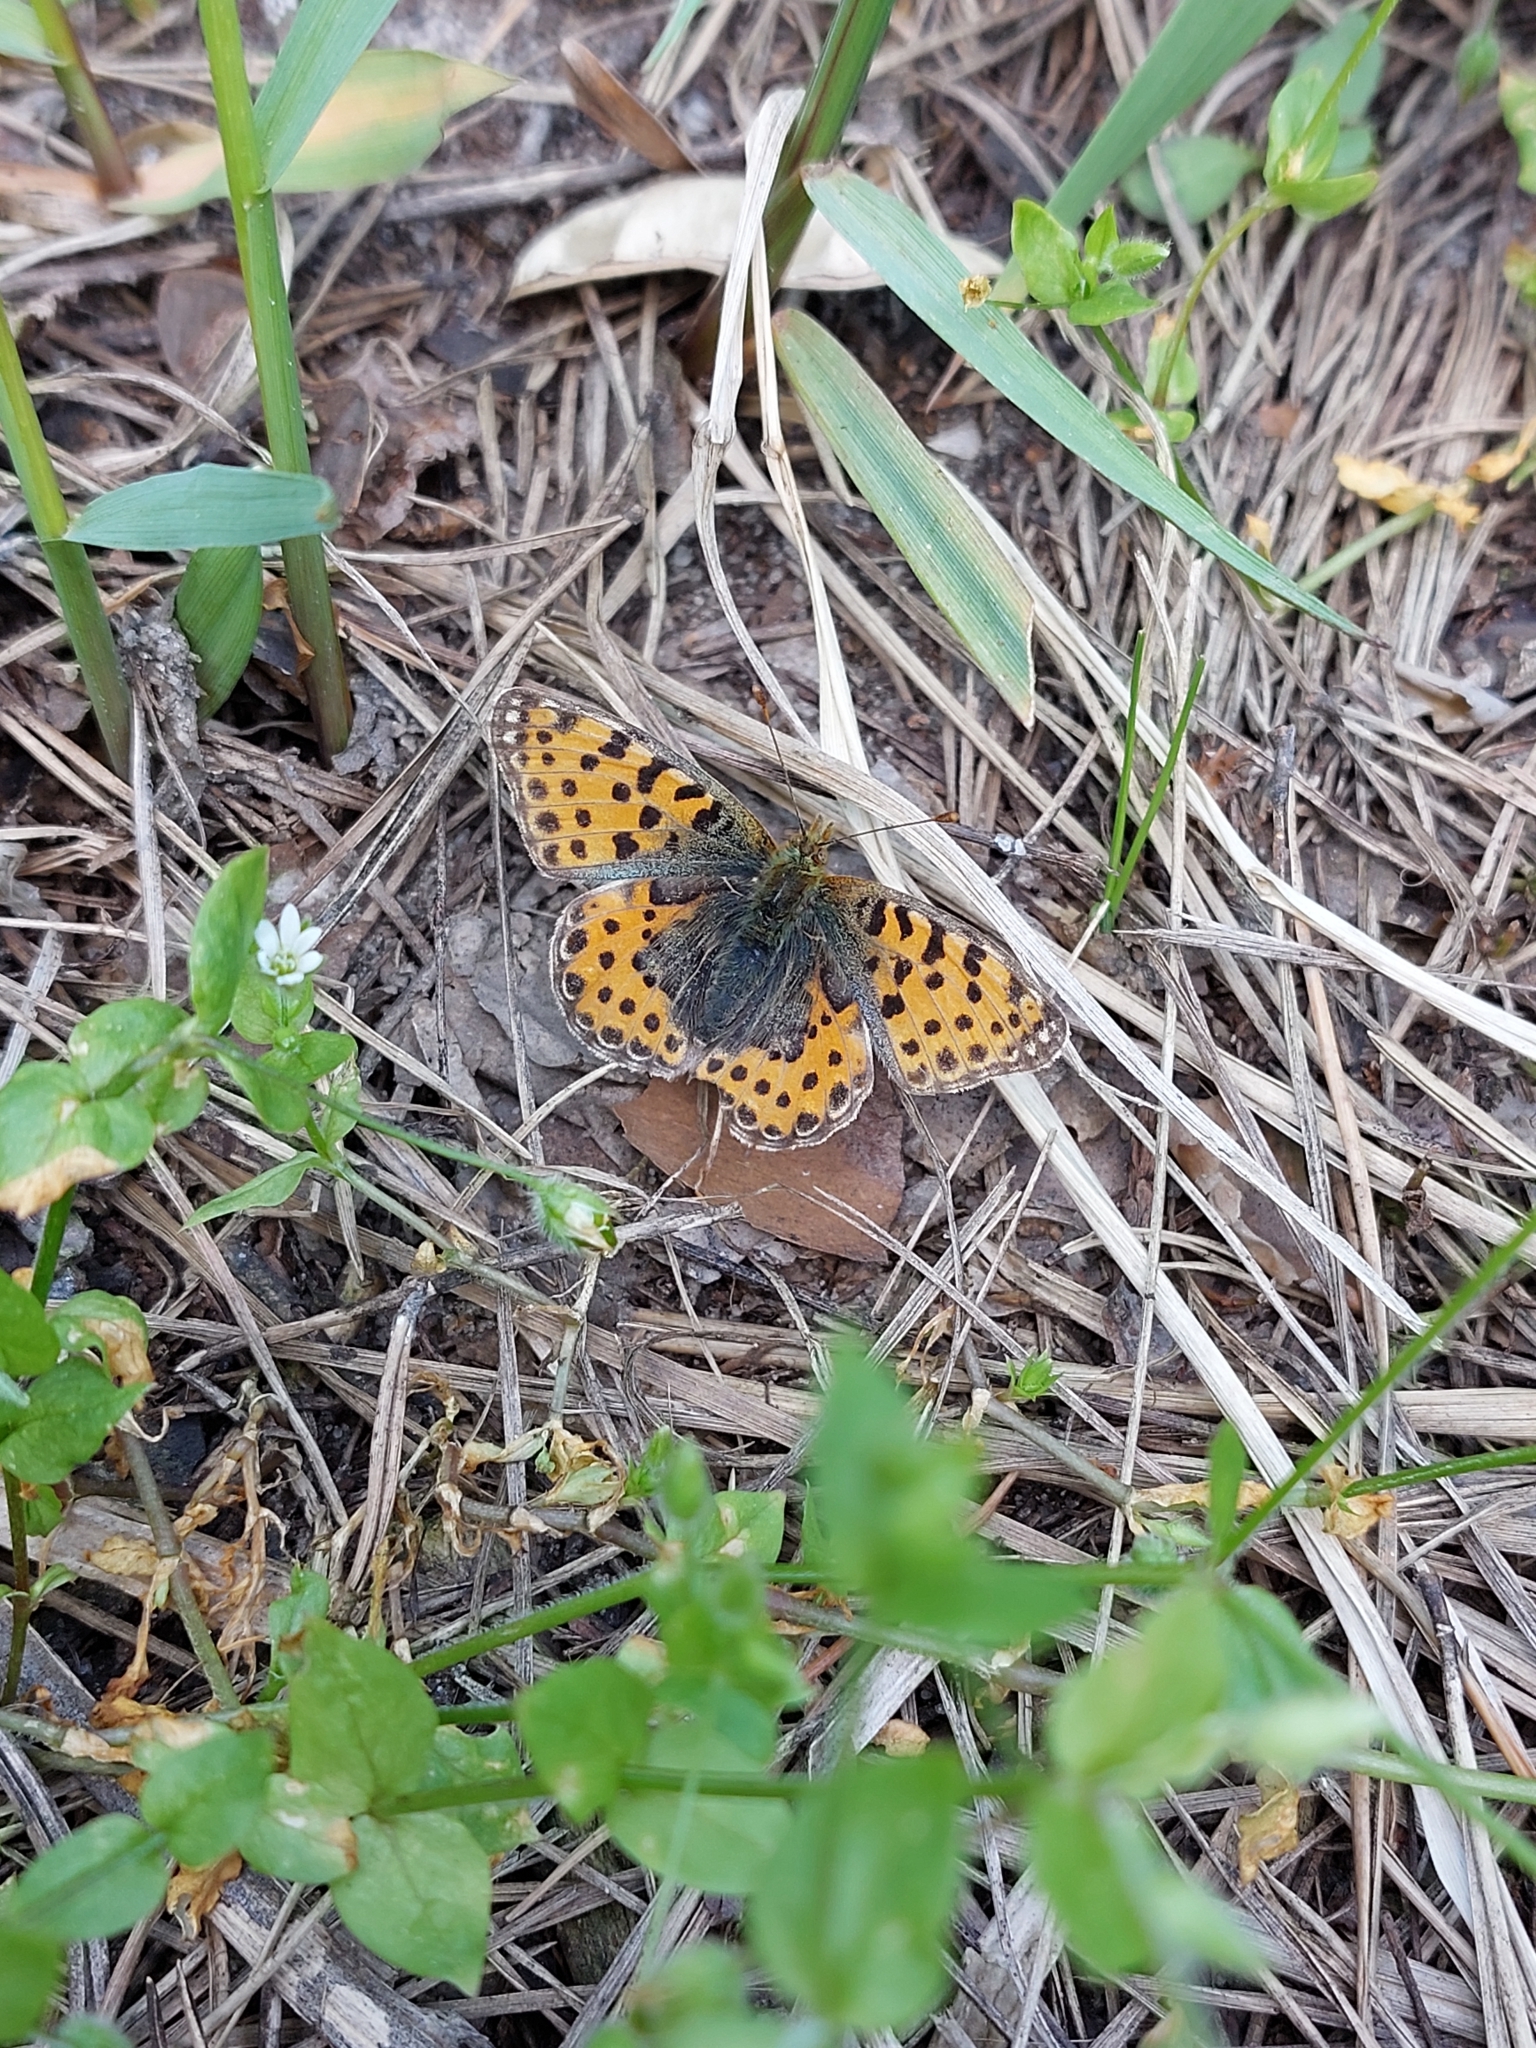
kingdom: Animalia
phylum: Arthropoda
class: Insecta
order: Lepidoptera
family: Nymphalidae
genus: Issoria
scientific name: Issoria lathonia
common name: Queen of spain fritillary
